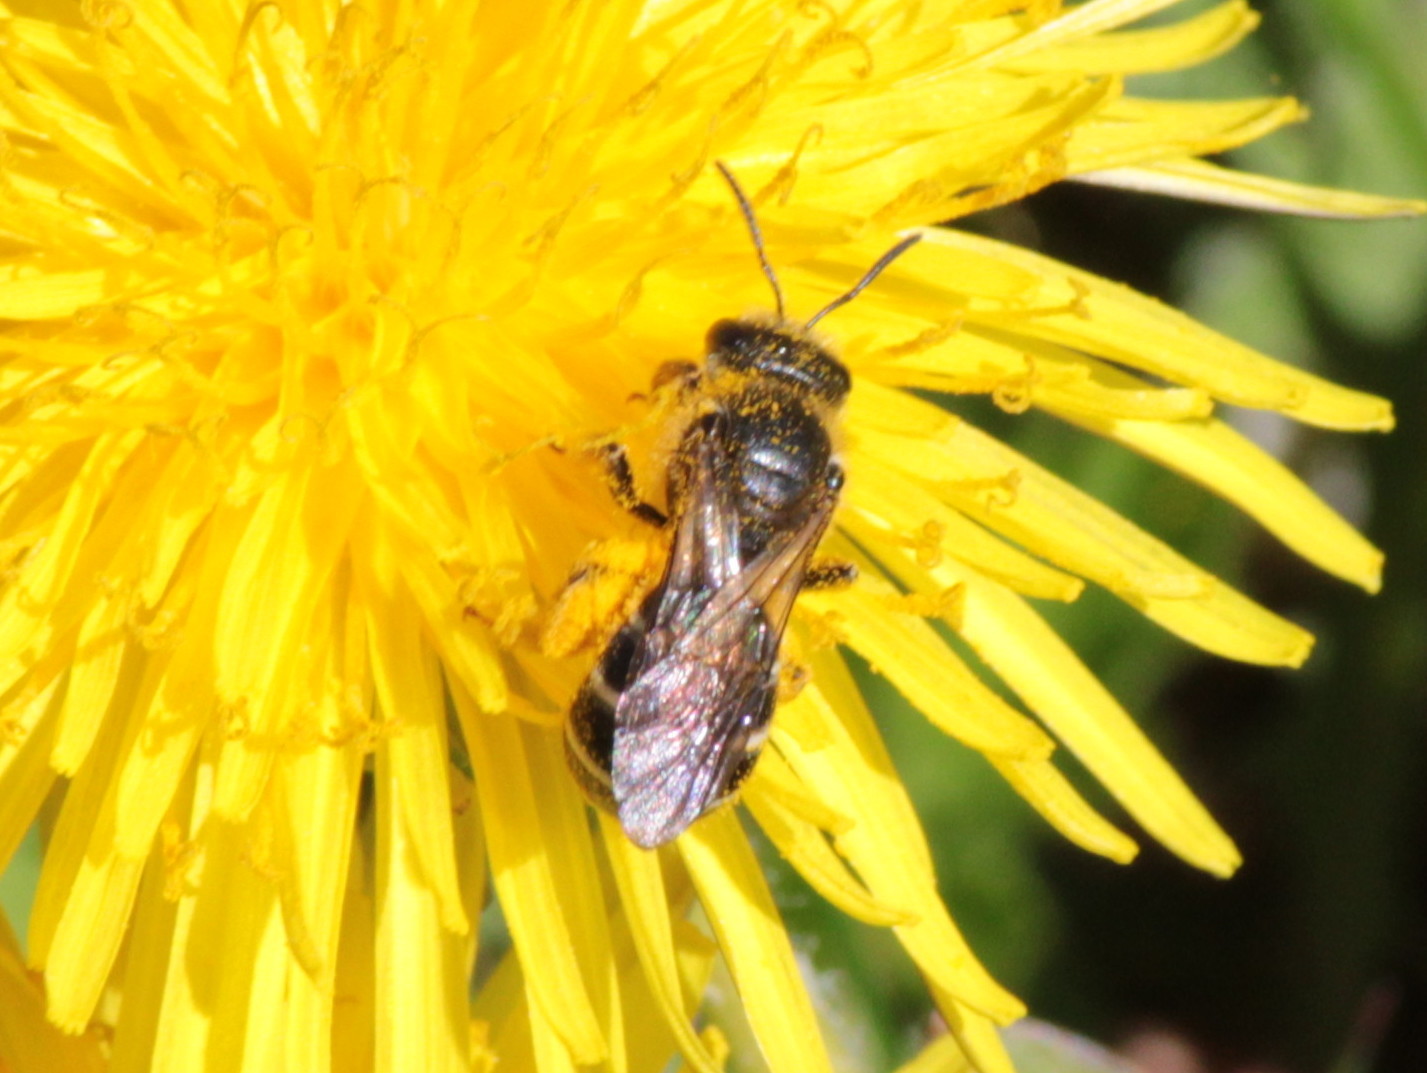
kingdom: Animalia
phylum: Arthropoda
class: Insecta
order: Hymenoptera
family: Halictidae
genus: Halictus
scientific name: Halictus rubicundus
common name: Orange-legged furrow bee
